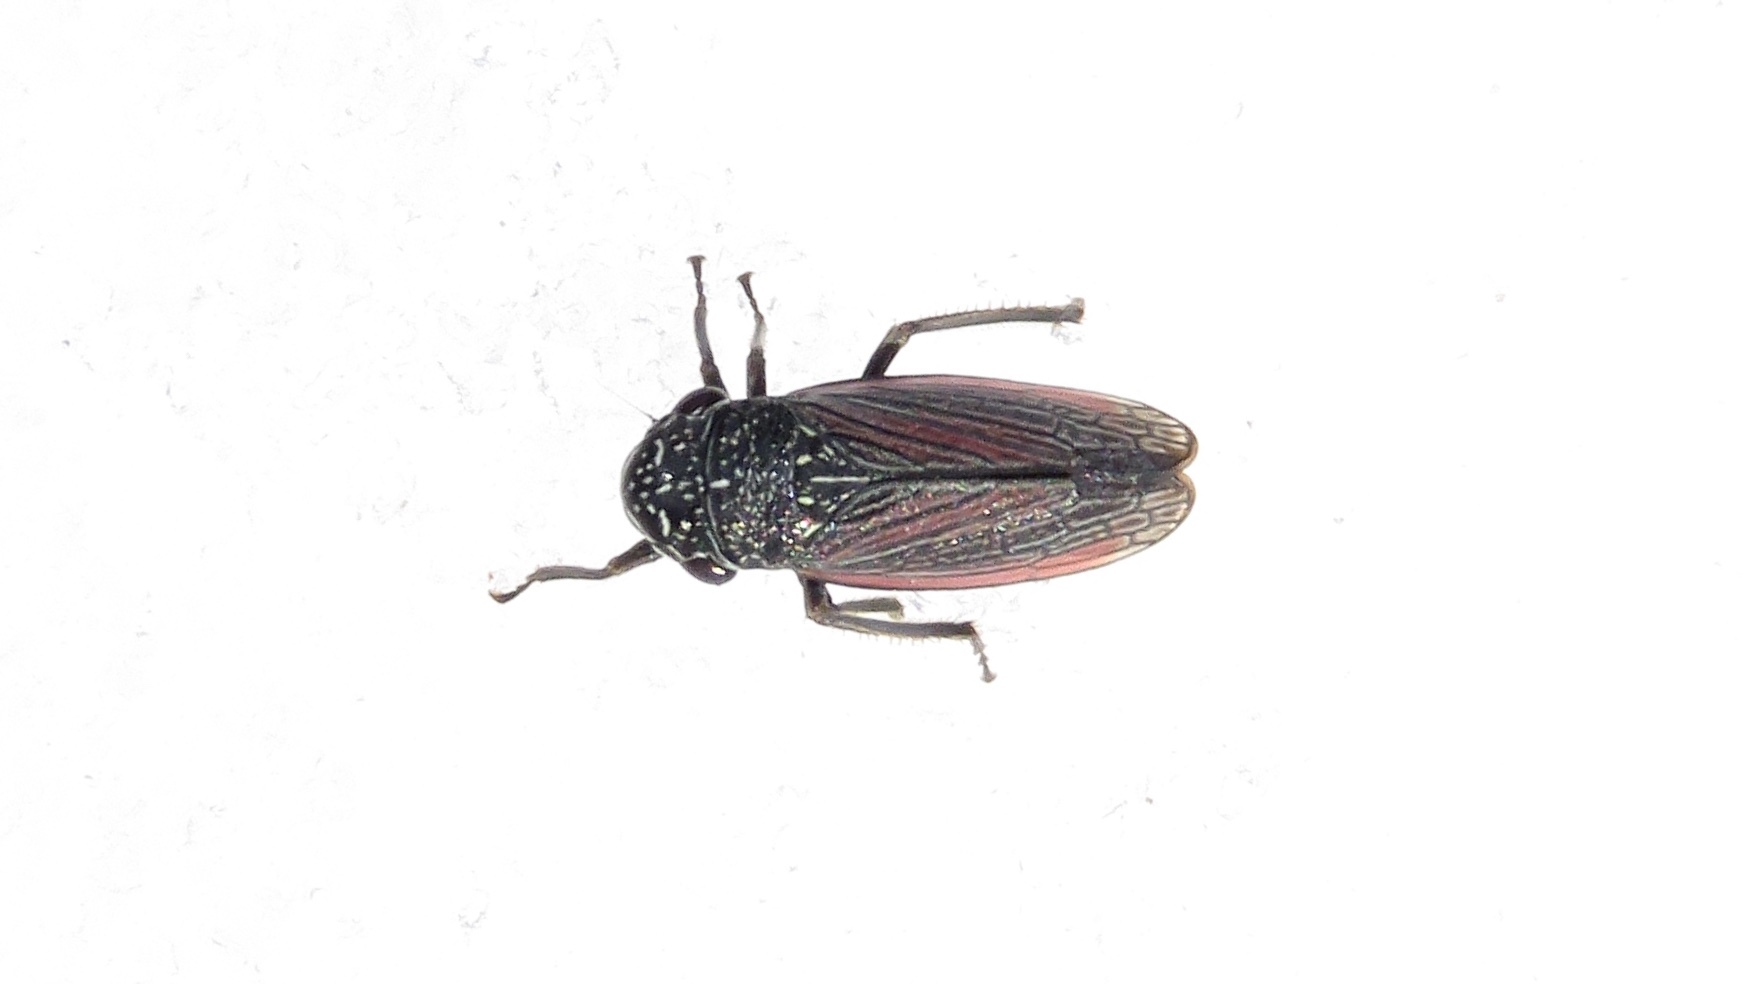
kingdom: Animalia
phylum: Arthropoda
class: Insecta
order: Hemiptera
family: Cicadellidae
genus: Cuerna
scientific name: Cuerna striata
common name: Striped leafhopper
